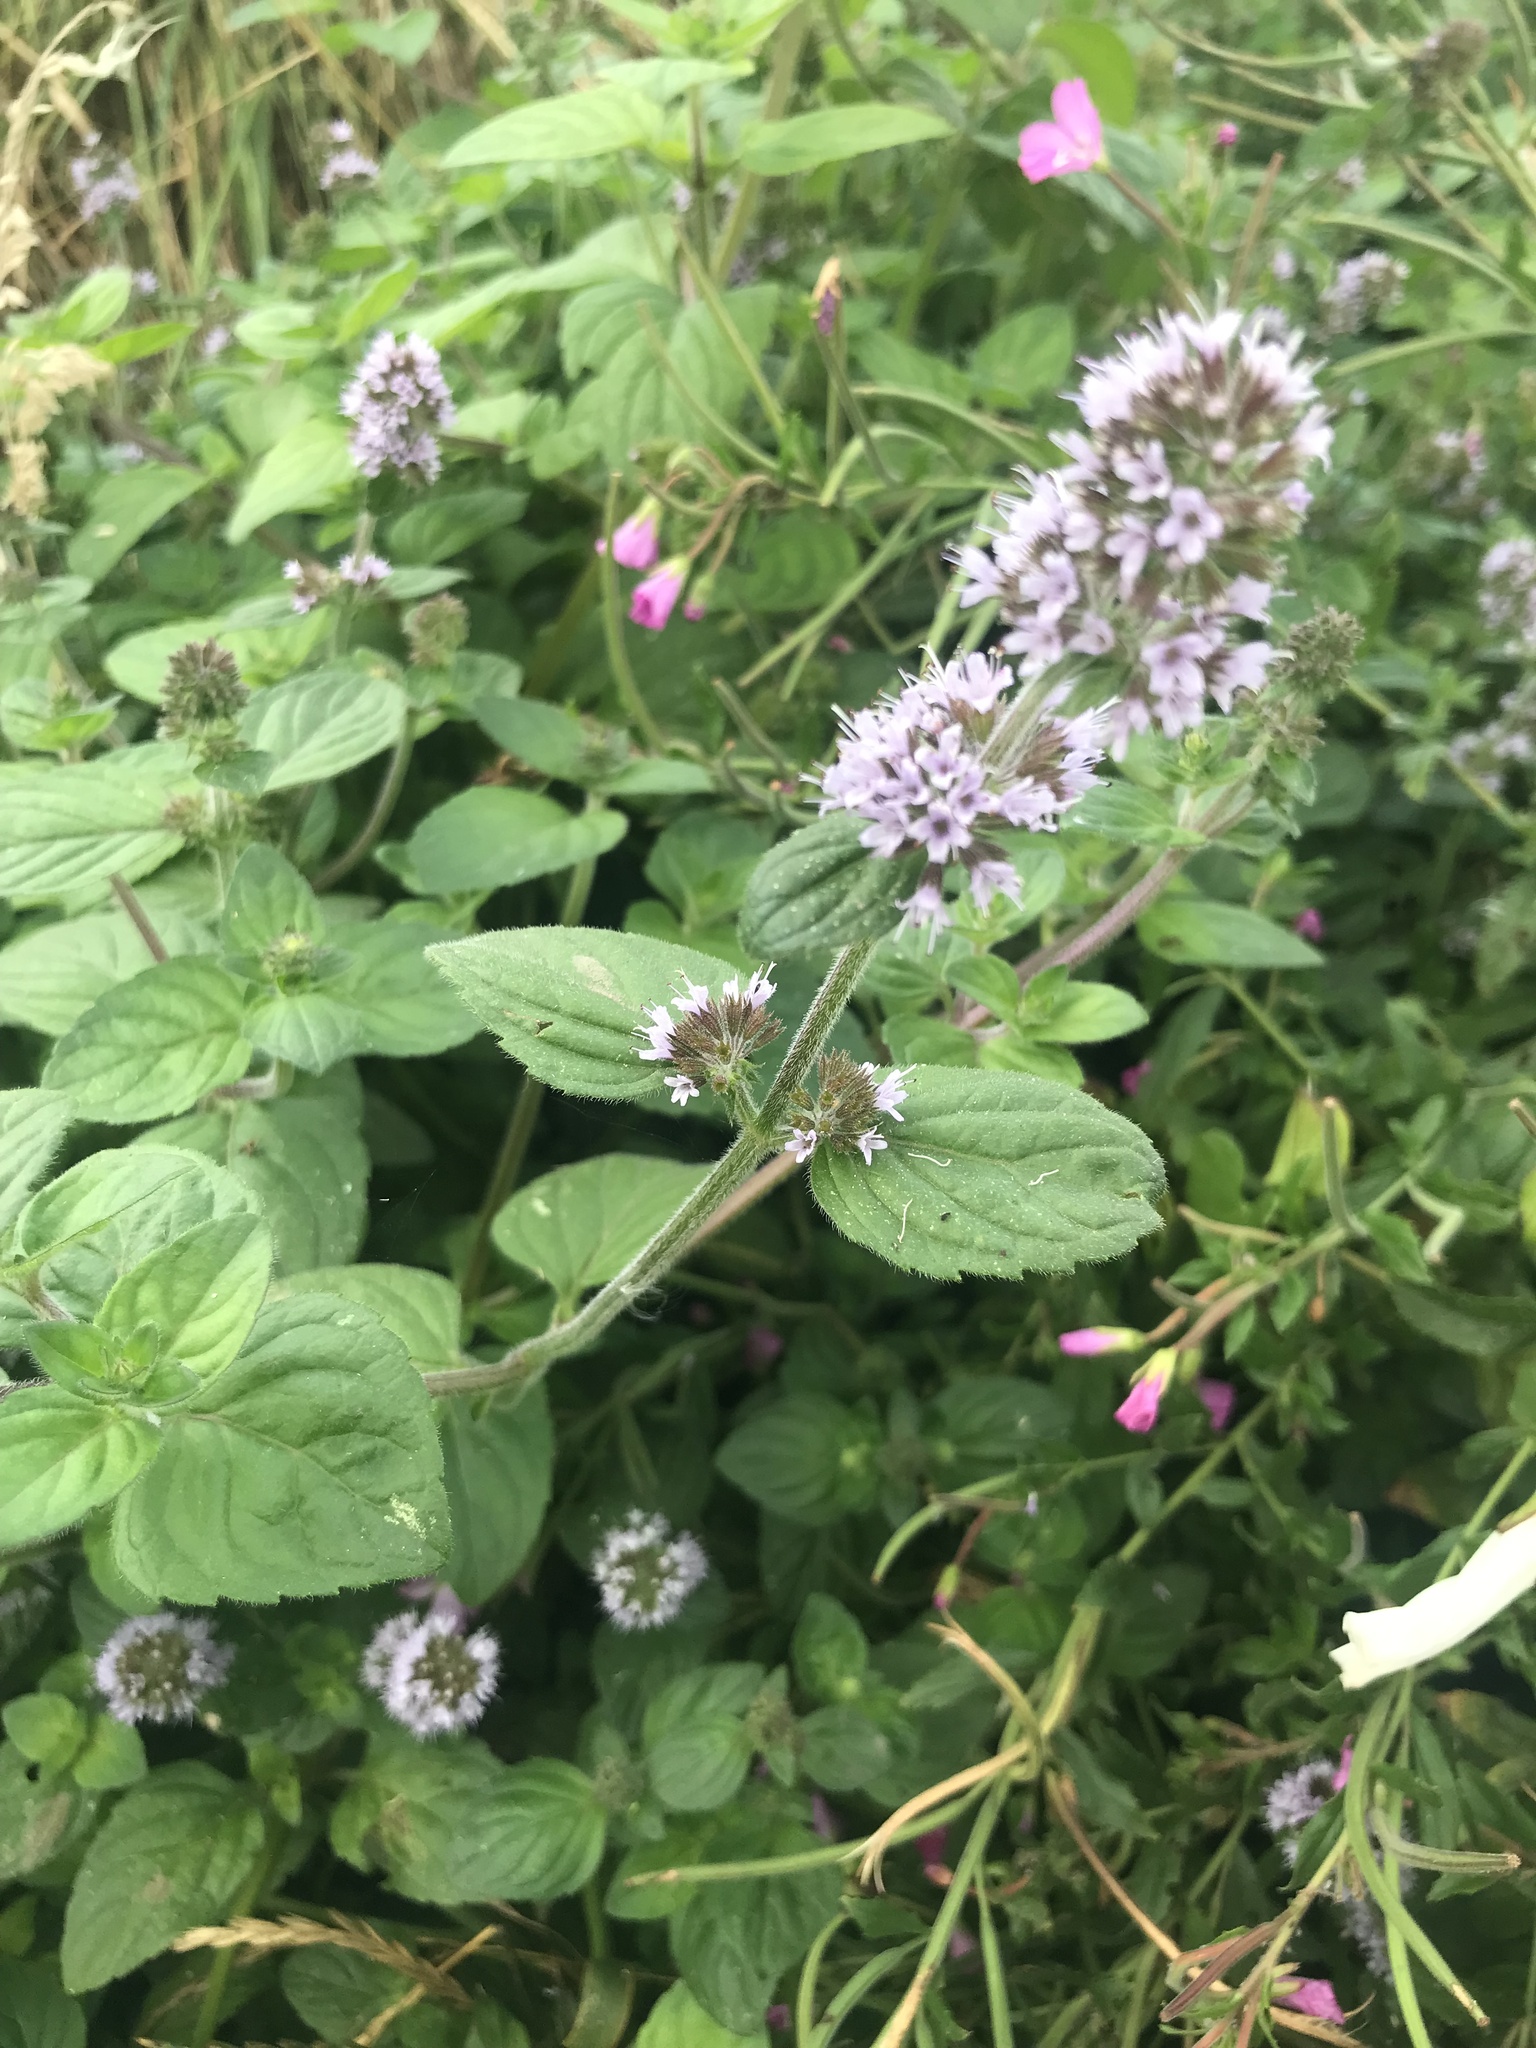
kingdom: Plantae
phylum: Tracheophyta
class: Magnoliopsida
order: Lamiales
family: Lamiaceae
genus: Mentha
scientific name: Mentha aquatica
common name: Water mint
